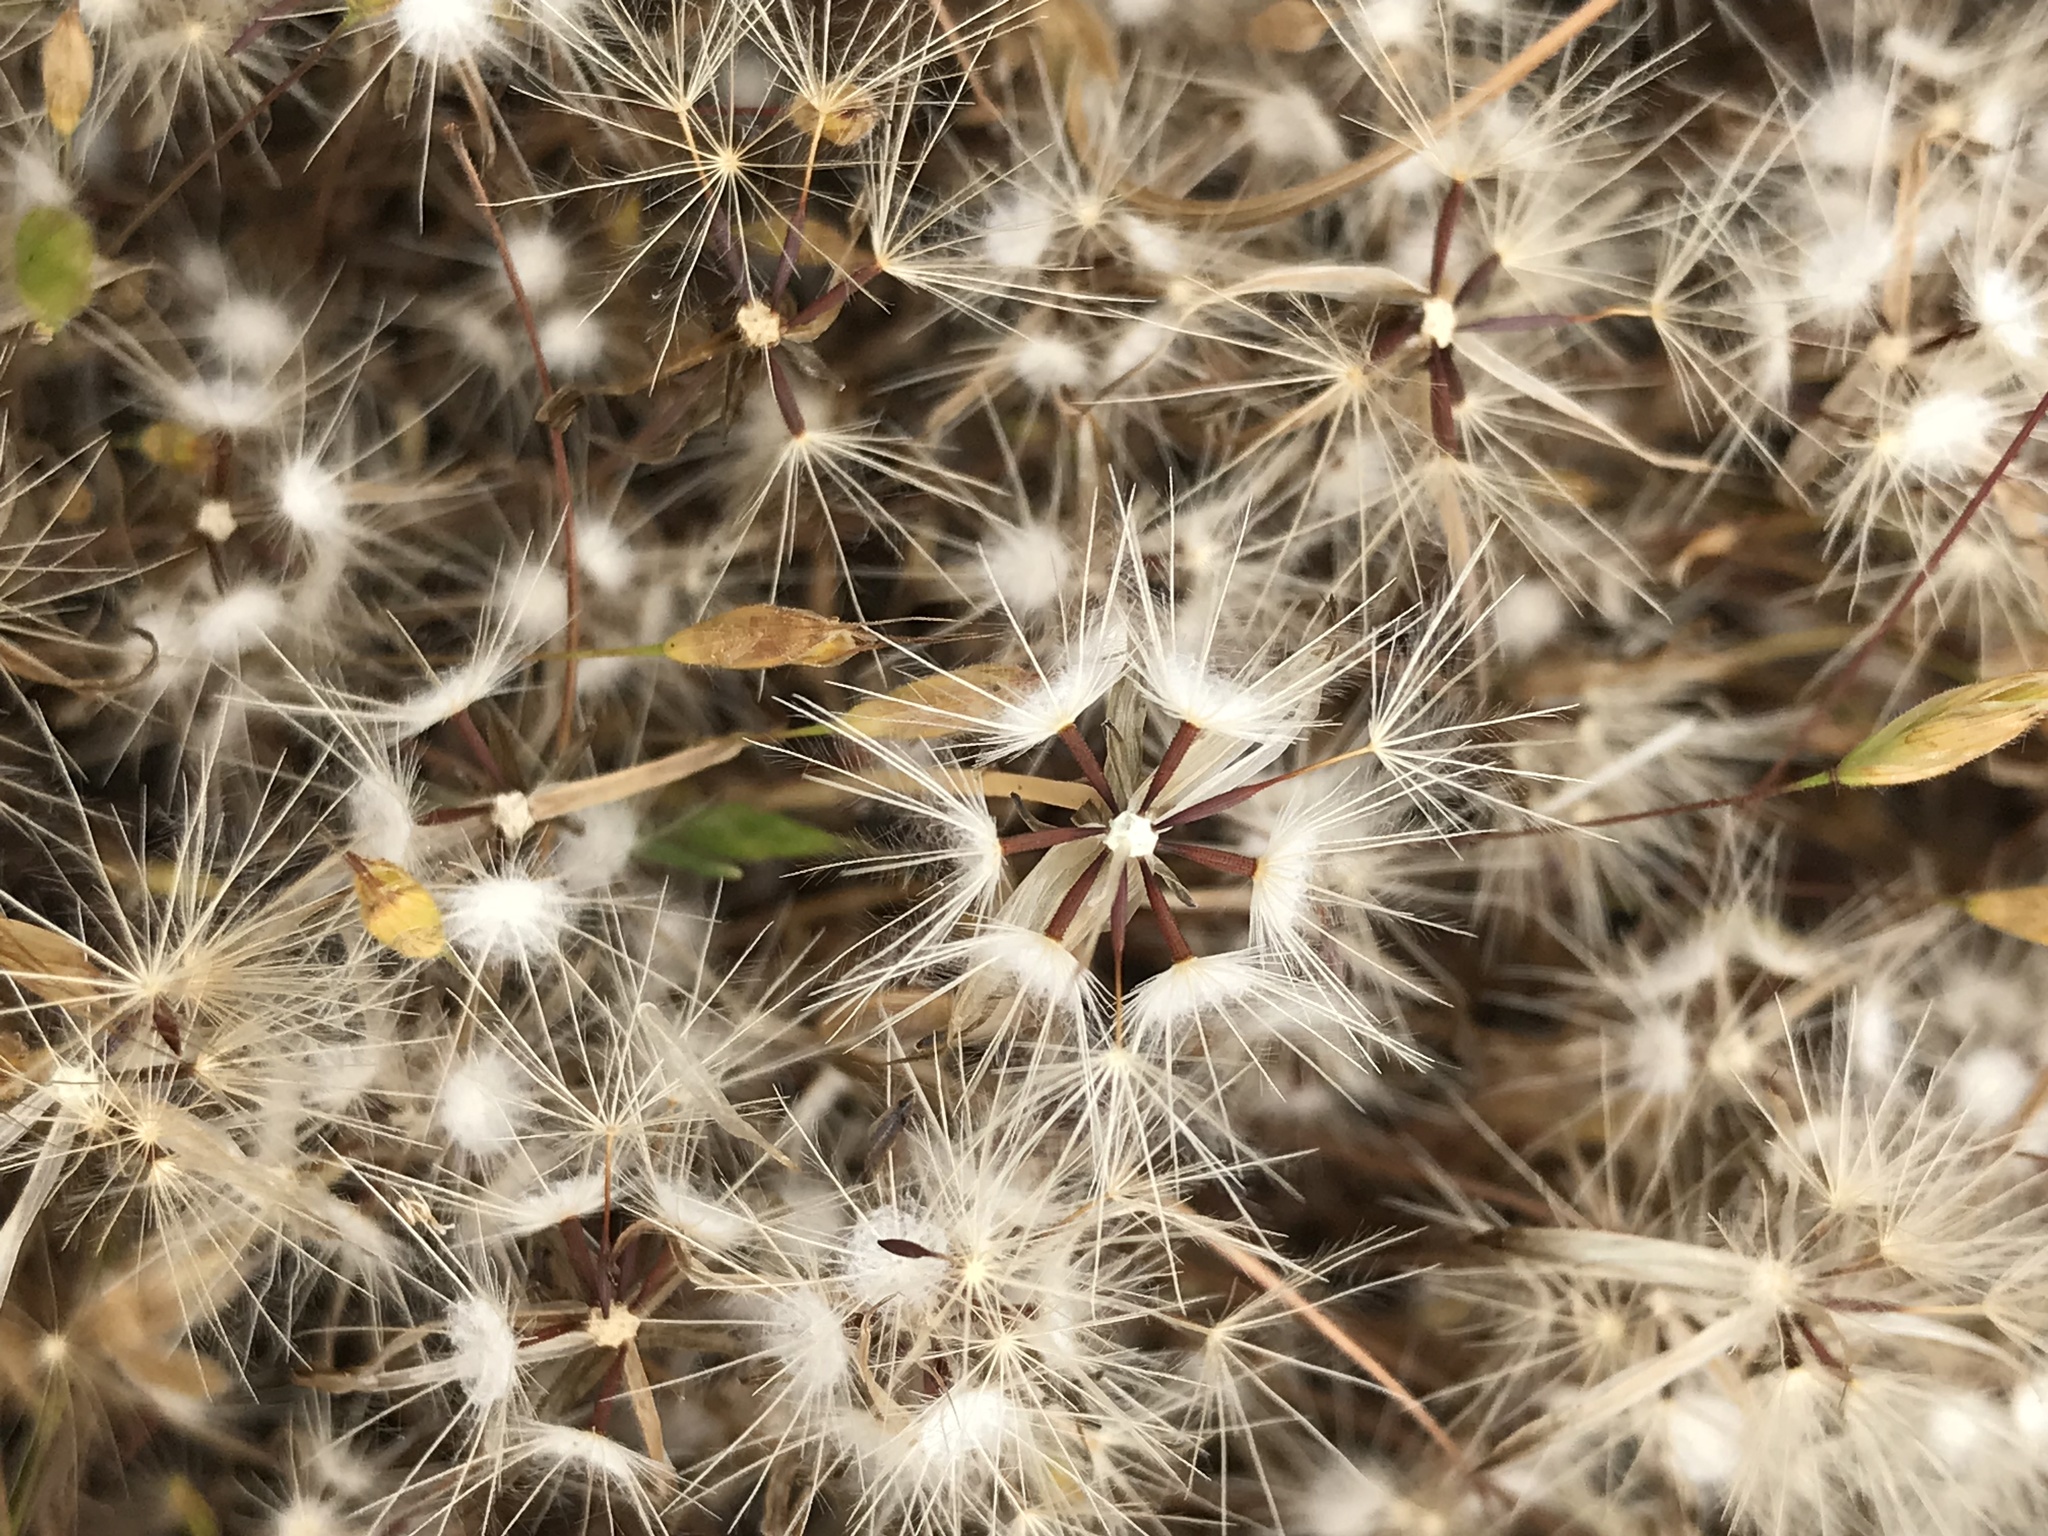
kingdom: Plantae
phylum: Tracheophyta
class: Magnoliopsida
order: Asterales
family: Asteraceae
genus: Hypochaeris
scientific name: Hypochaeris glabra
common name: Smooth catsear
